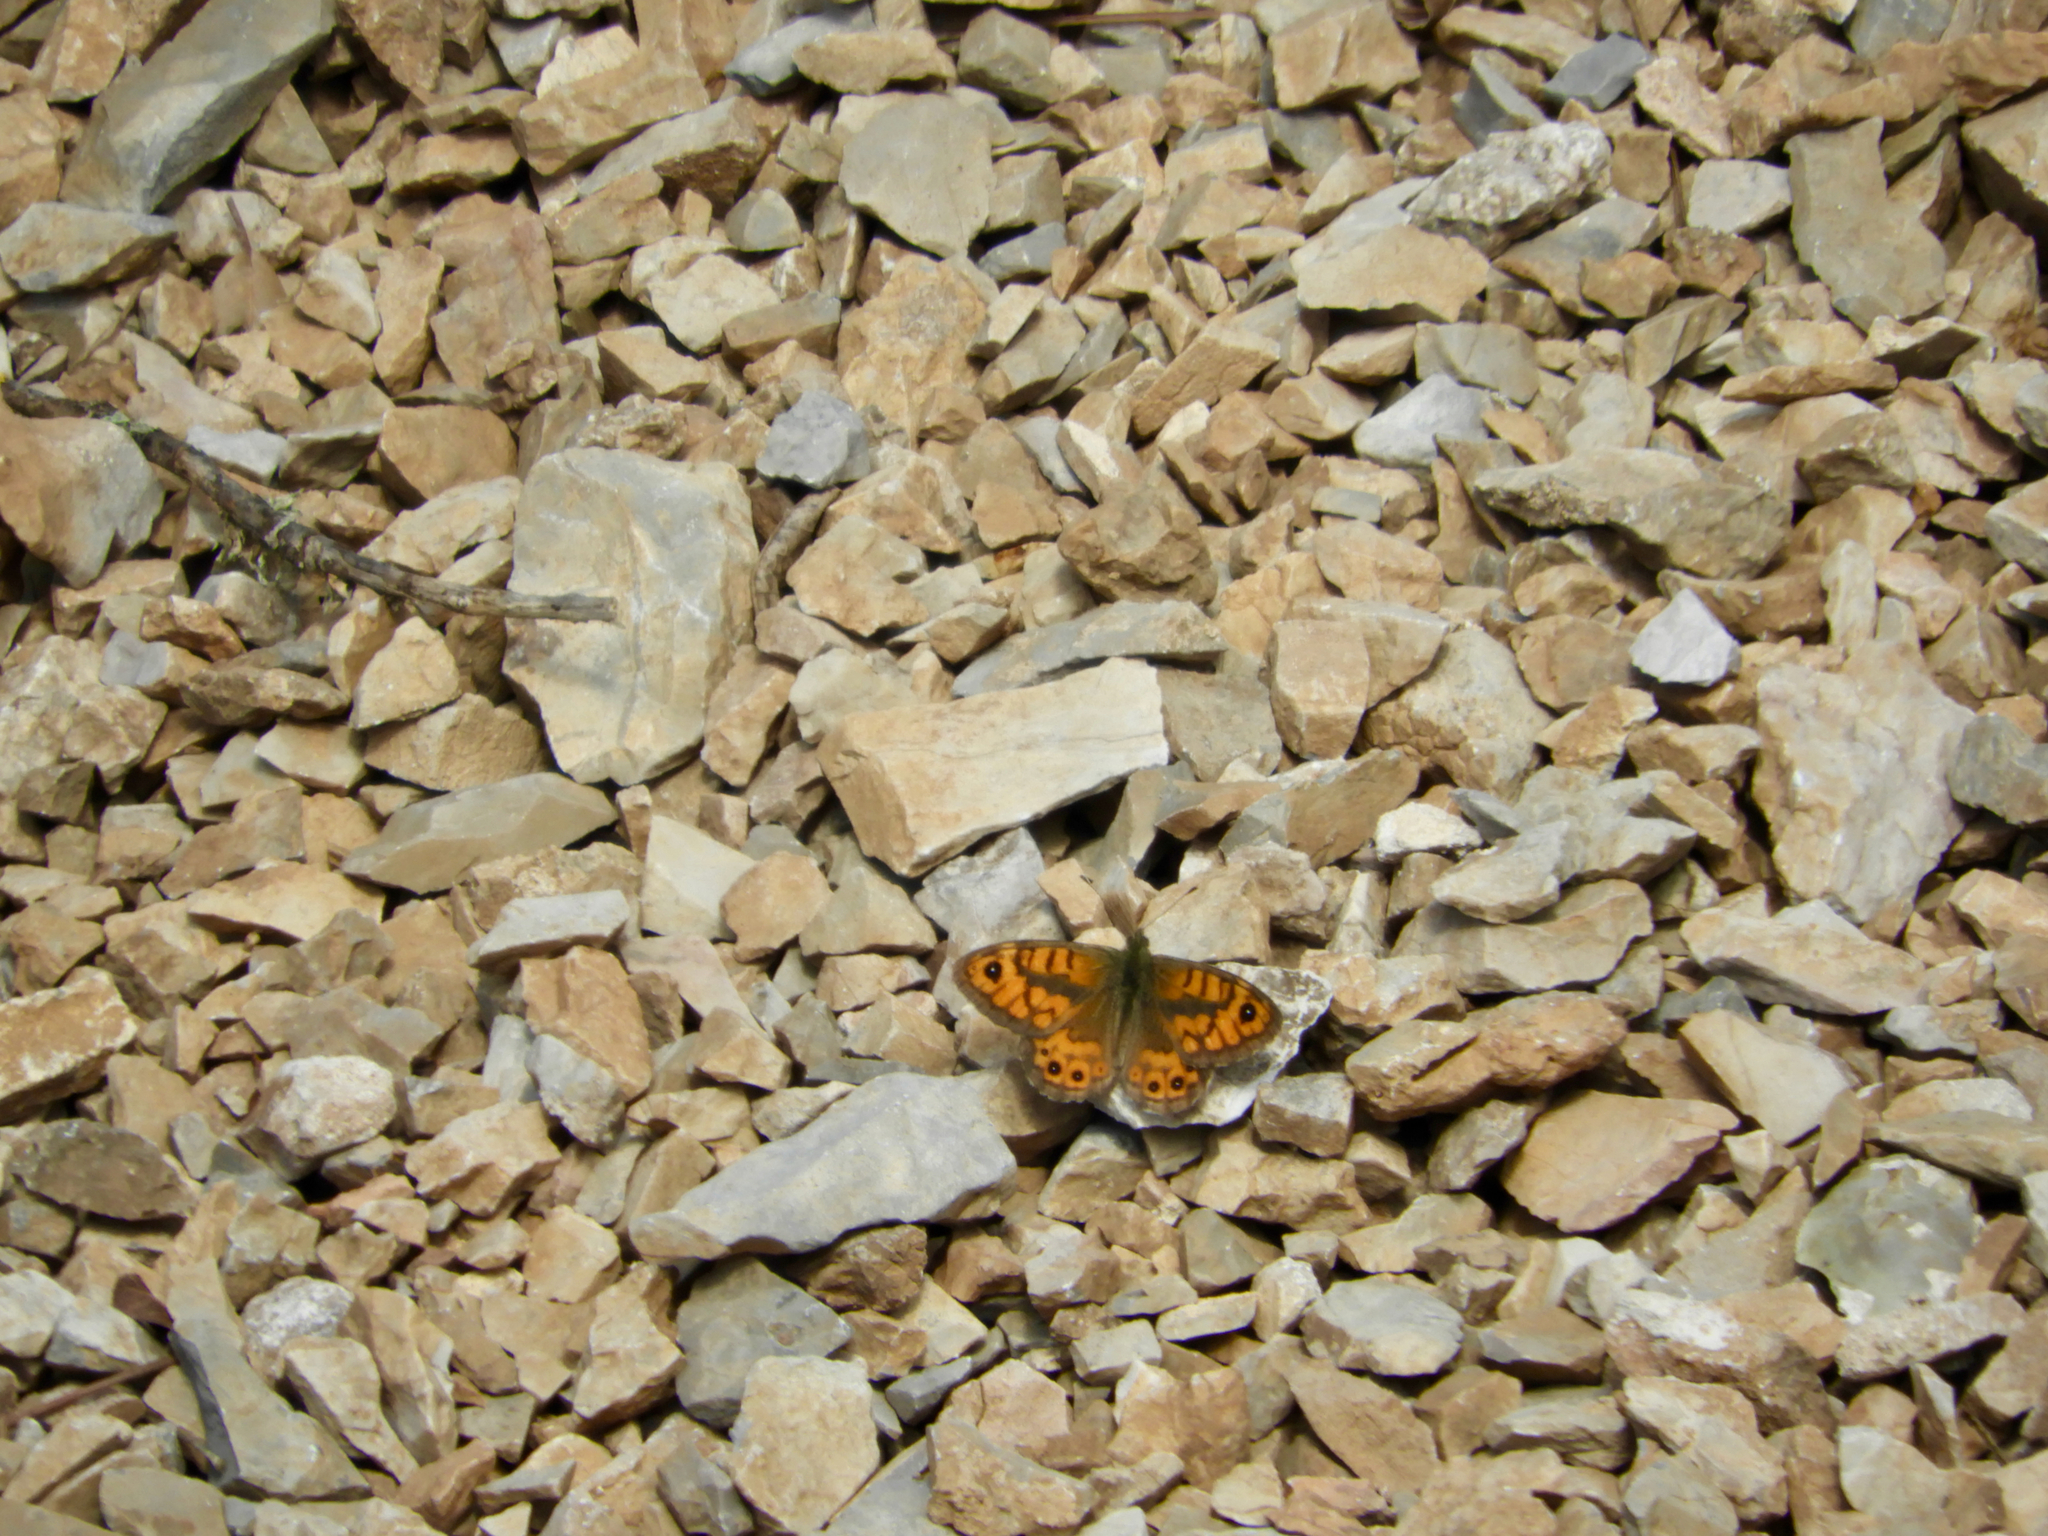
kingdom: Animalia
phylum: Arthropoda
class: Insecta
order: Lepidoptera
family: Nymphalidae
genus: Pararge
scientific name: Pararge Lasiommata megera
